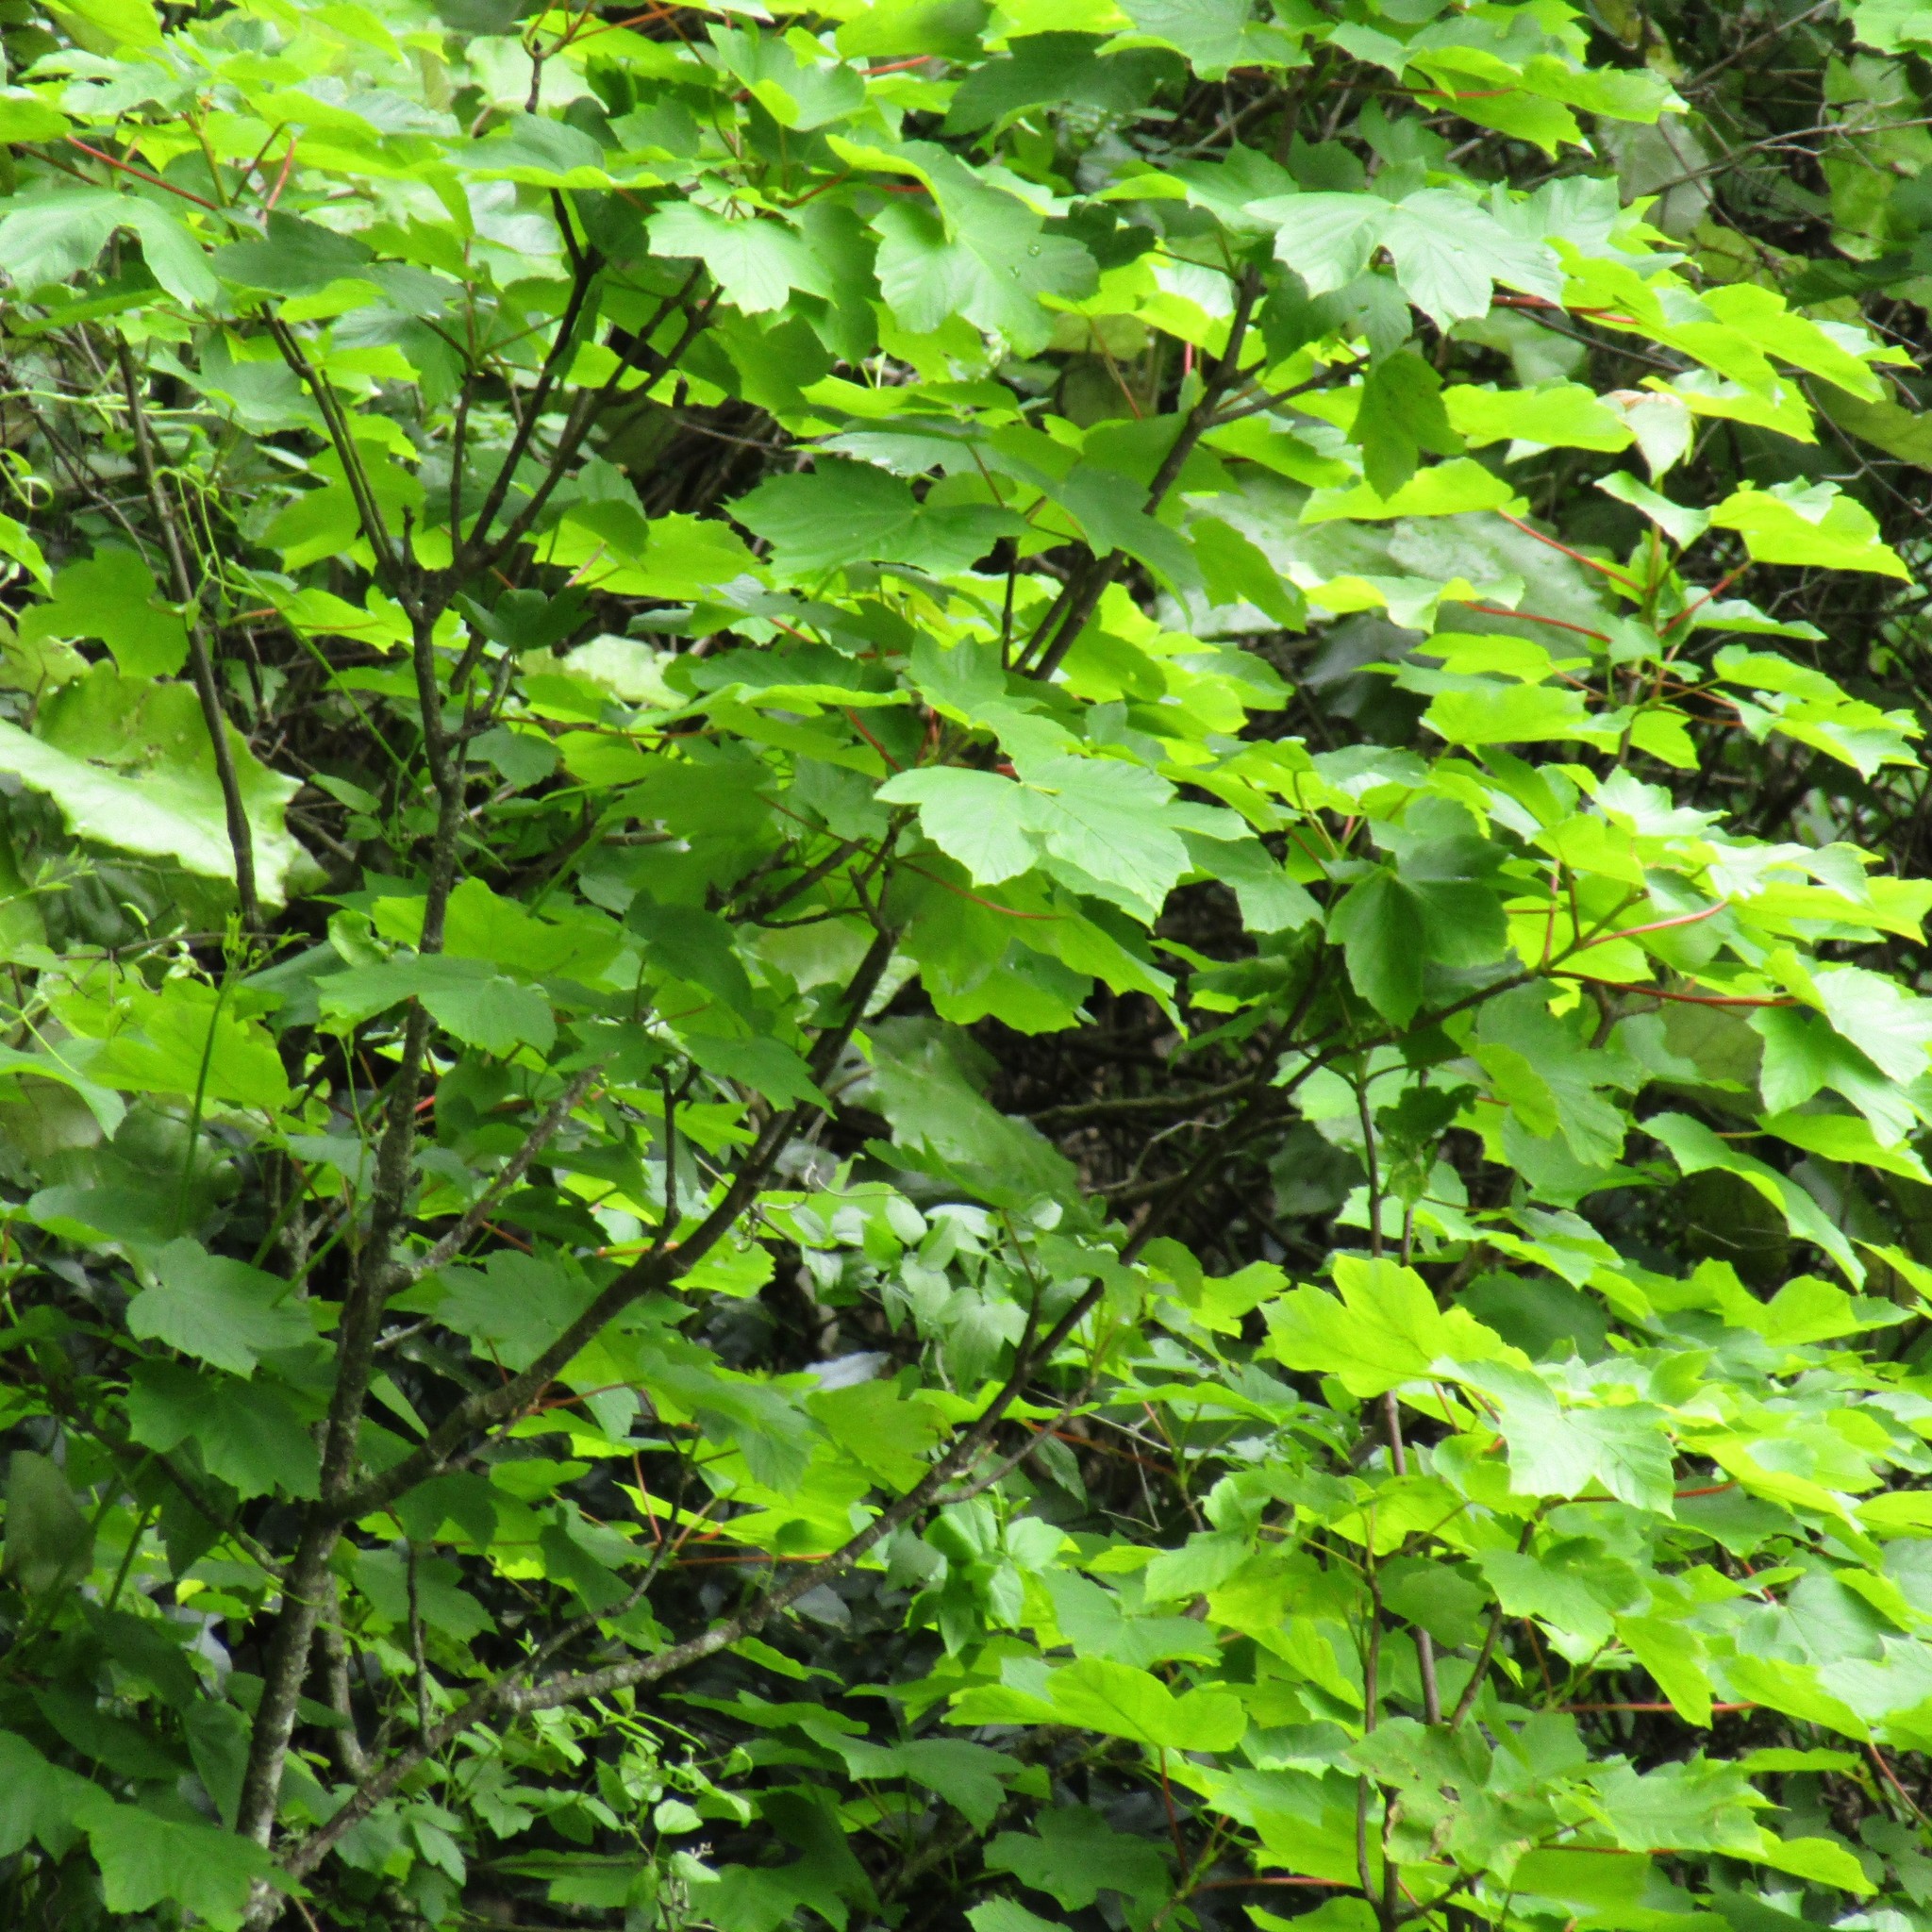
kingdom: Plantae
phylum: Tracheophyta
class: Magnoliopsida
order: Sapindales
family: Sapindaceae
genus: Acer
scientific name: Acer pseudoplatanus
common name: Sycamore
